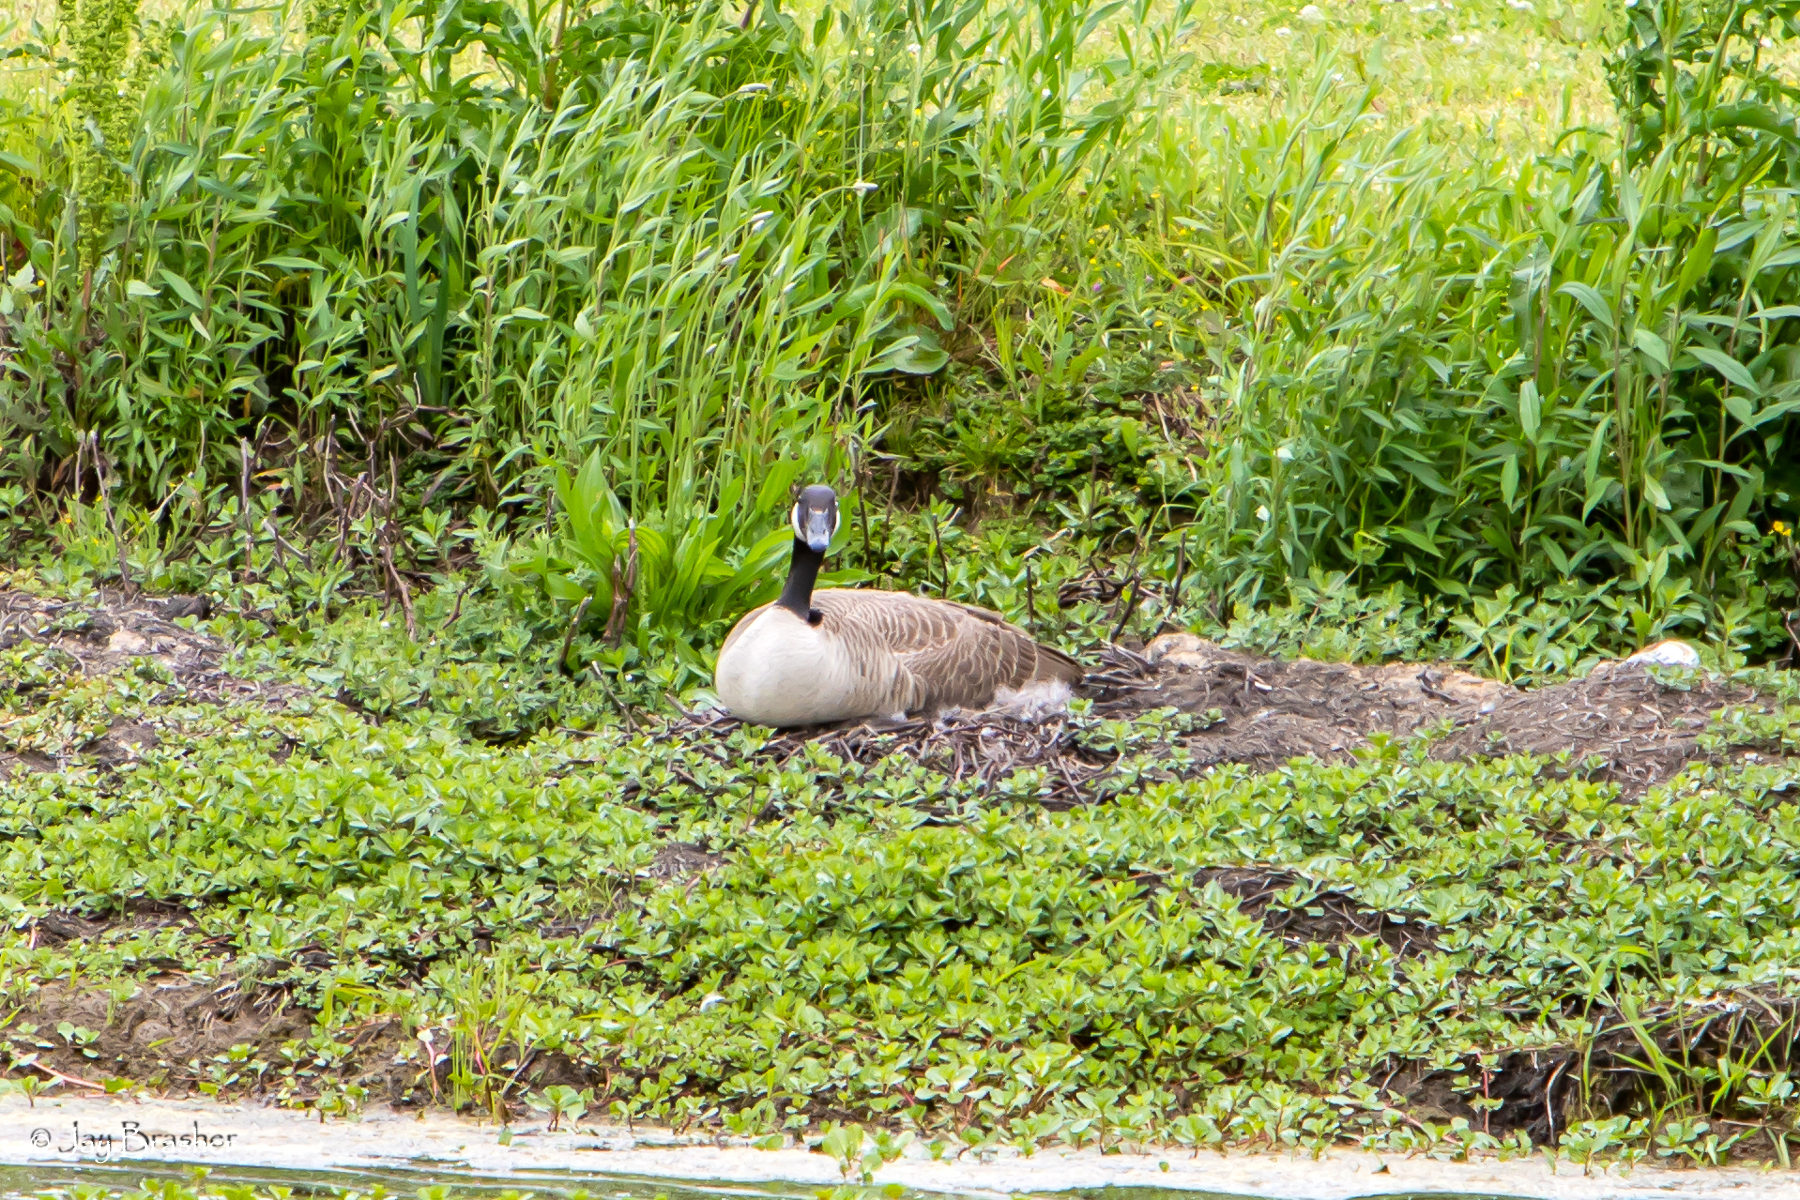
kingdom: Animalia
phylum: Chordata
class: Aves
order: Anseriformes
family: Anatidae
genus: Branta
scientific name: Branta canadensis
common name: Canada goose
